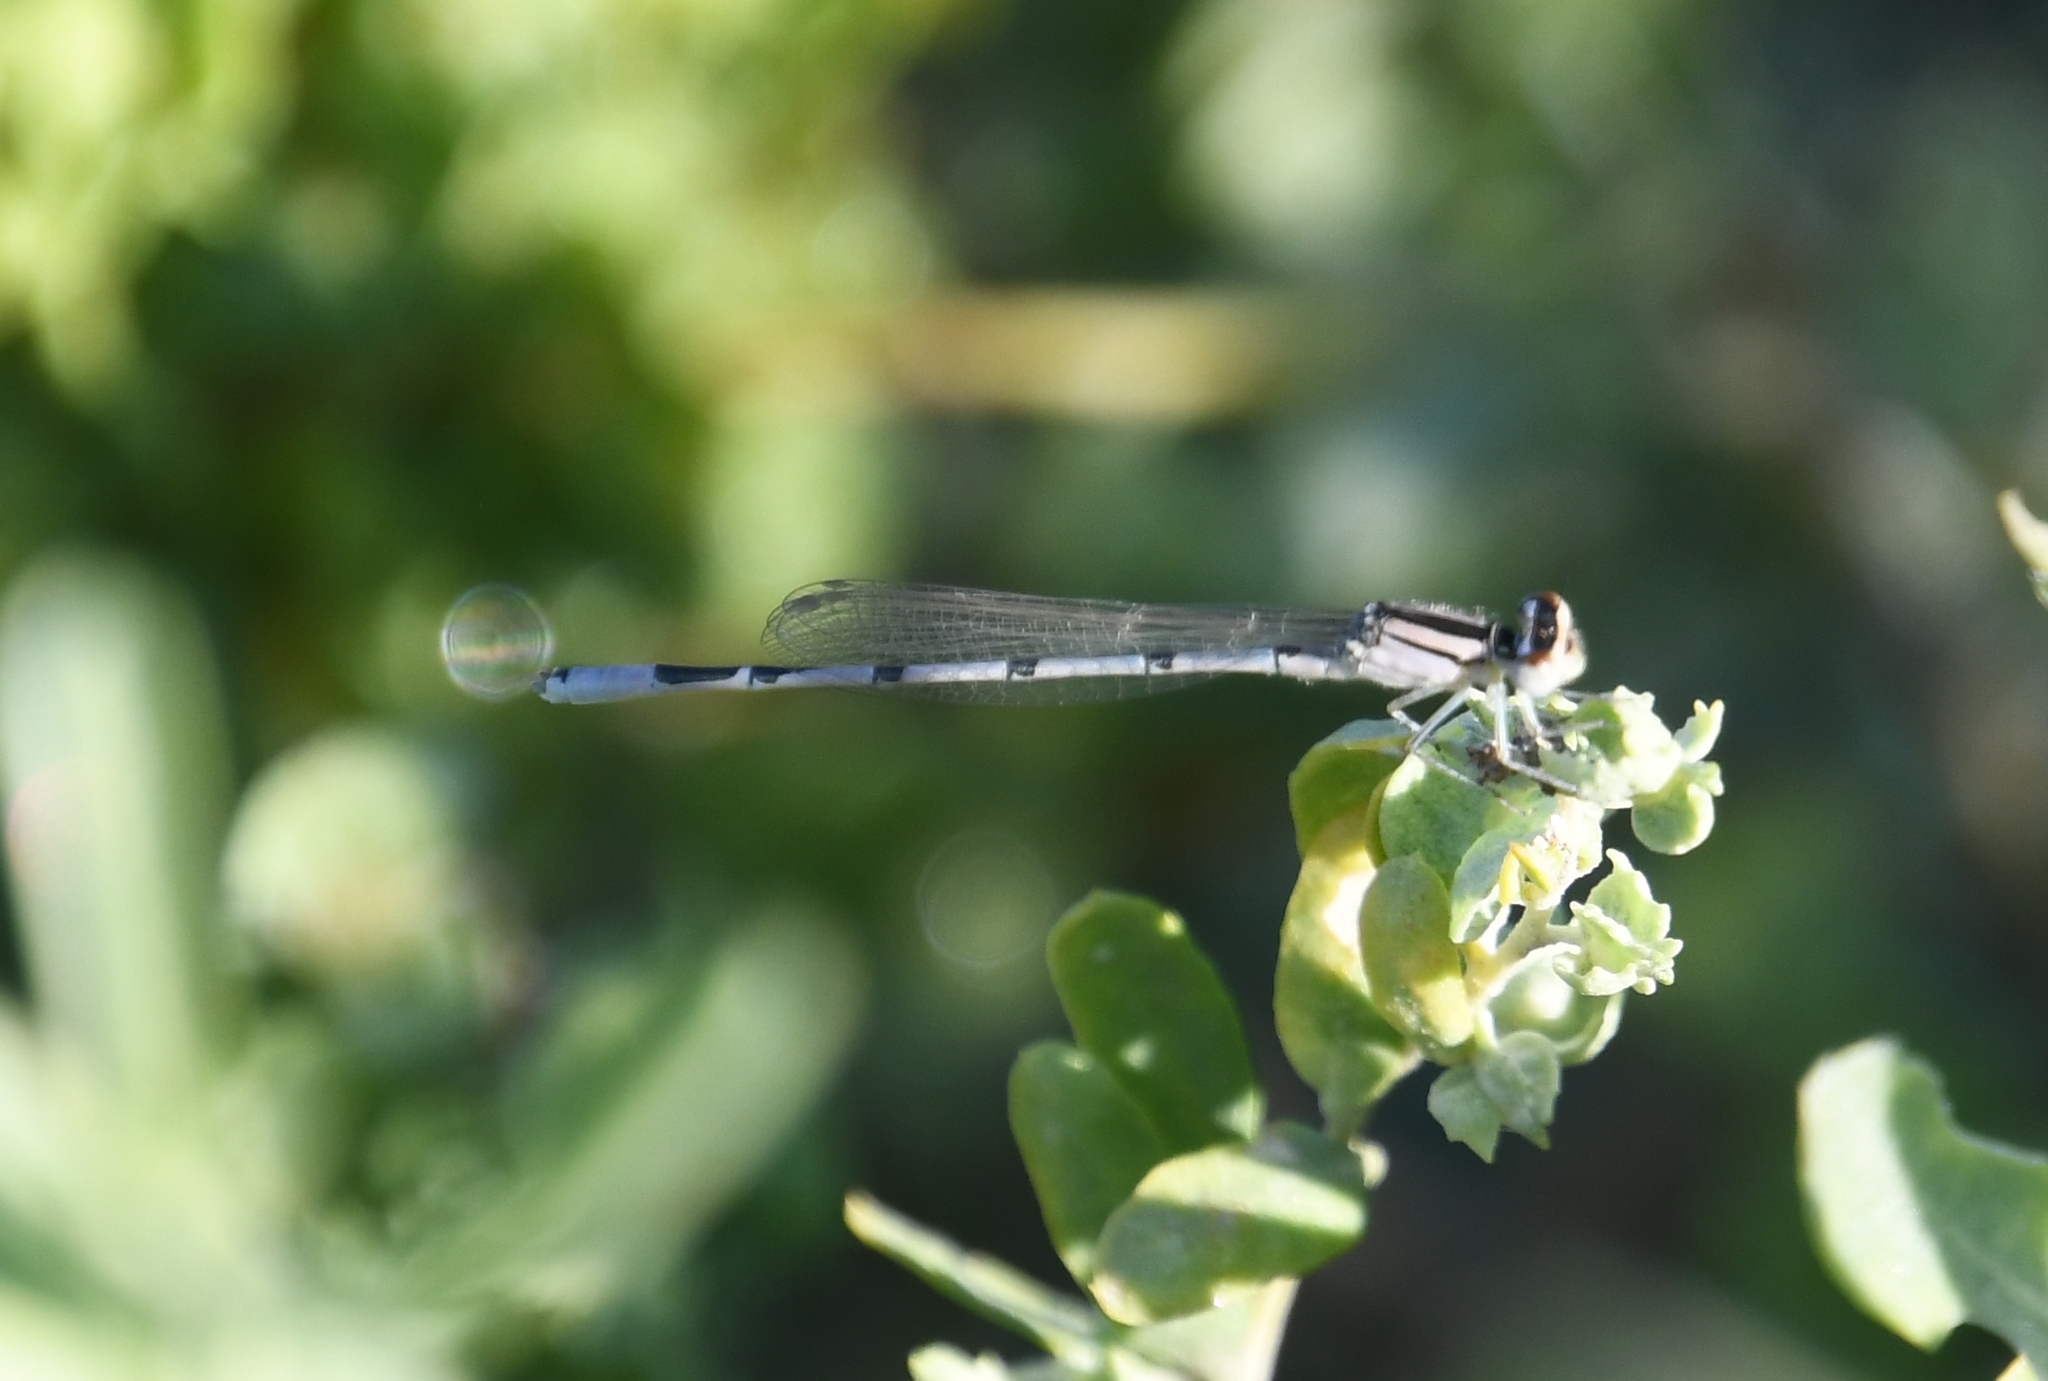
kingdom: Animalia
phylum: Arthropoda
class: Insecta
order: Odonata
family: Coenagrionidae
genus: Enallagma
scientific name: Enallagma civile
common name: Damselfly
